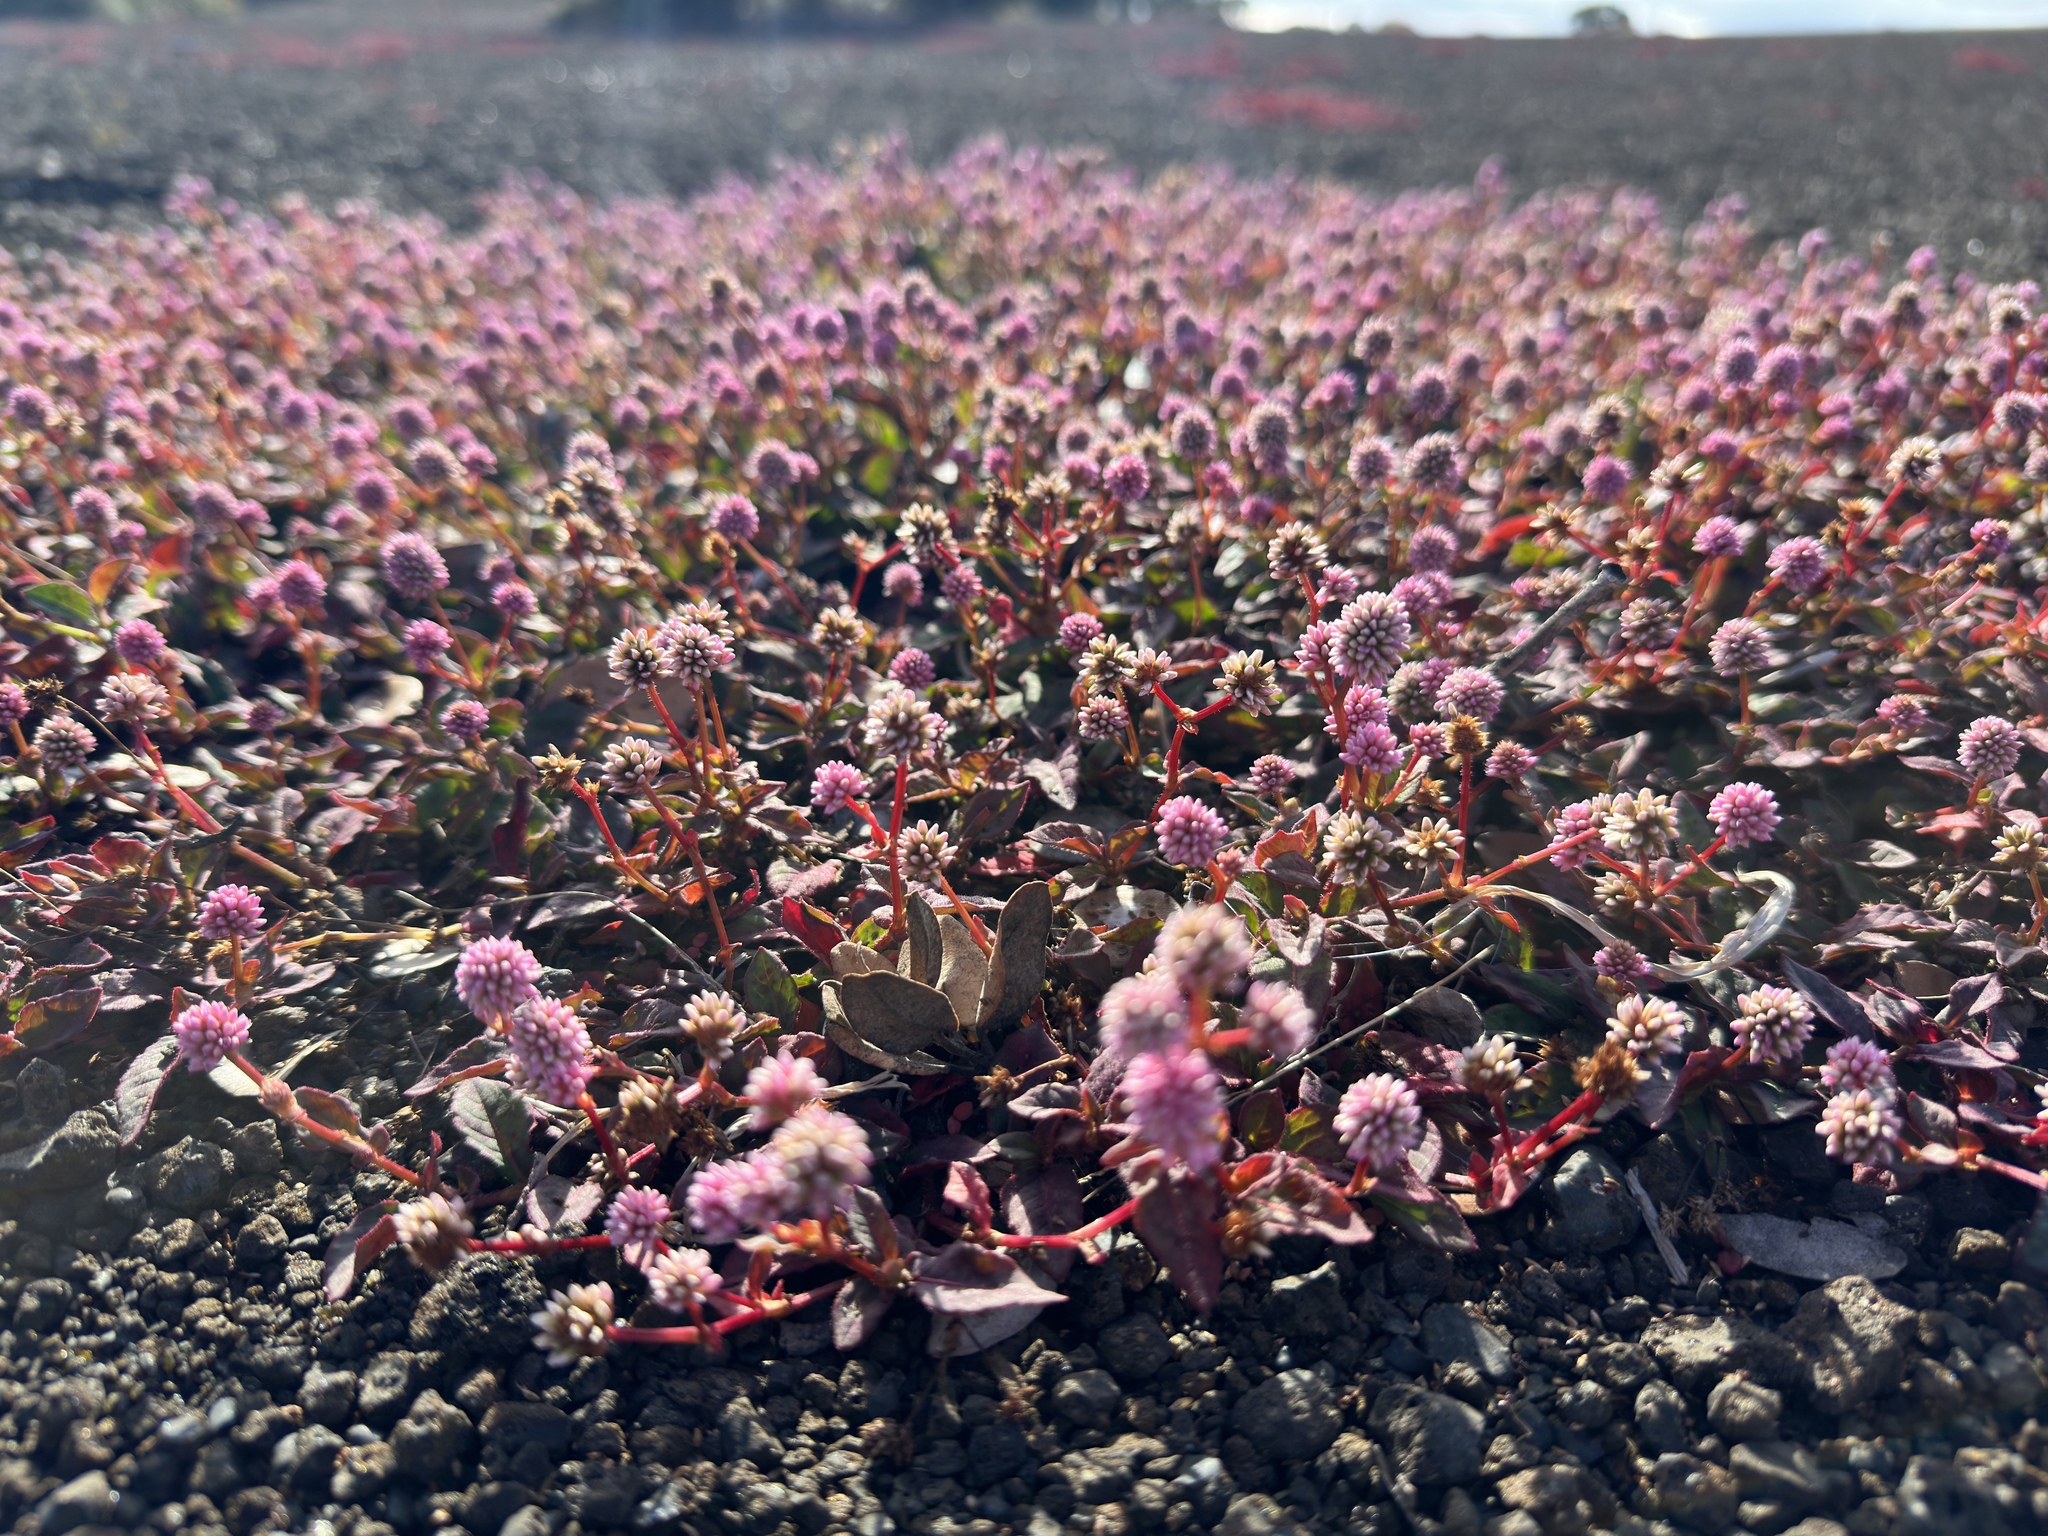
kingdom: Plantae
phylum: Tracheophyta
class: Magnoliopsida
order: Caryophyllales
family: Polygonaceae
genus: Persicaria
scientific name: Persicaria capitata
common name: Pinkhead smartweed
